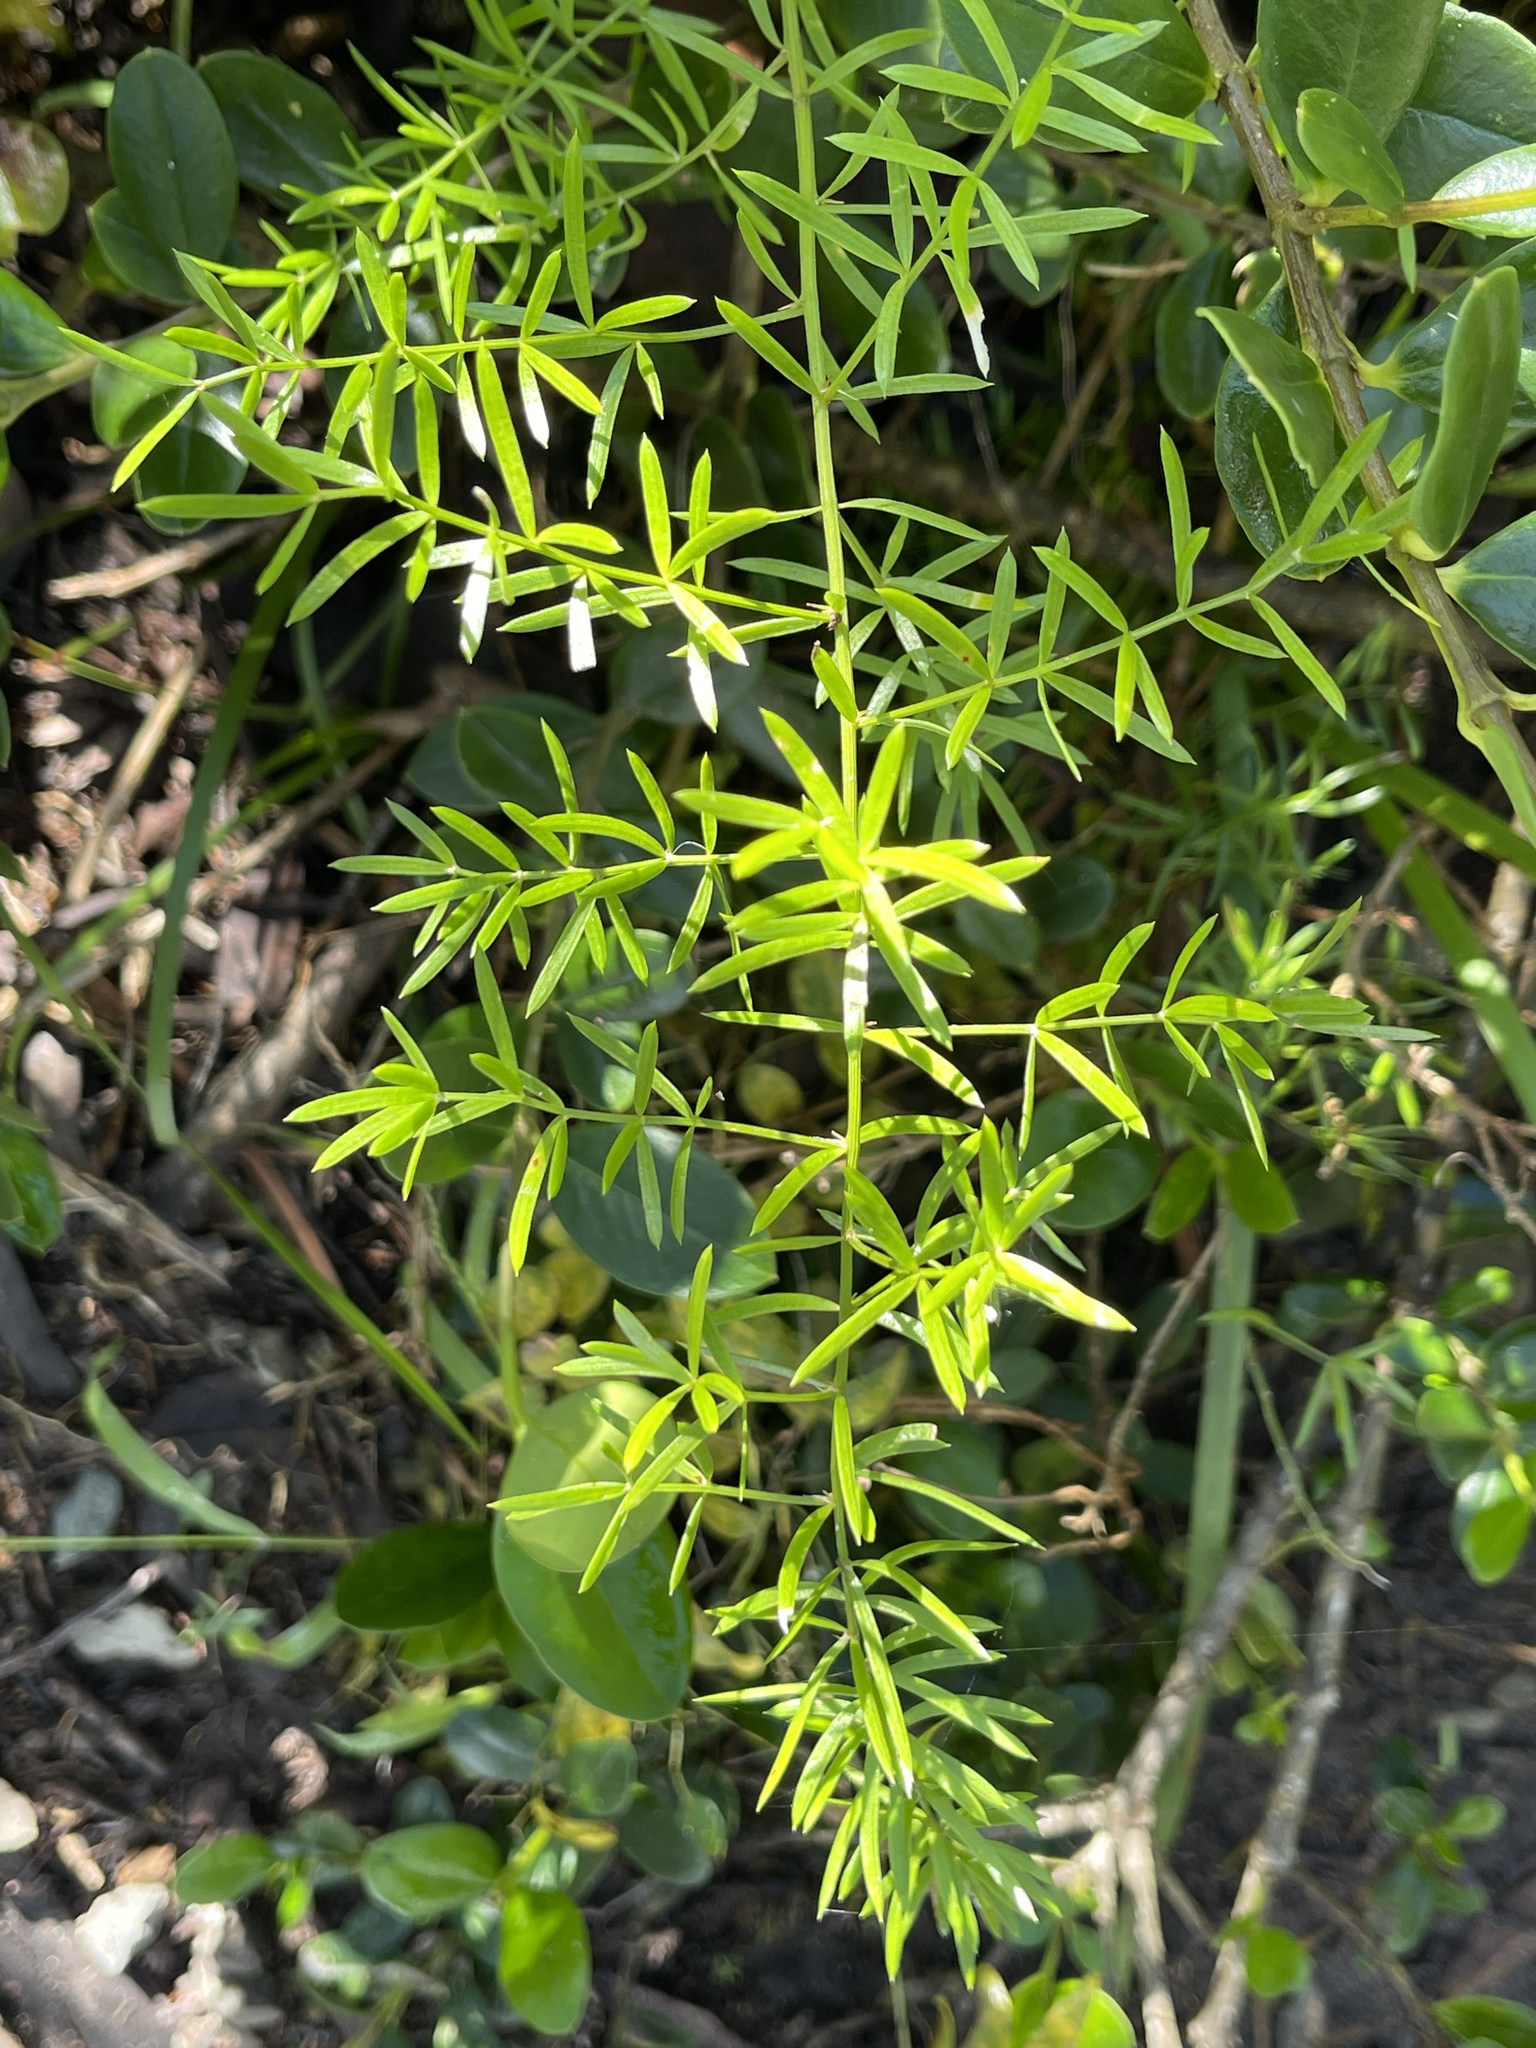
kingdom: Plantae
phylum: Tracheophyta
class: Liliopsida
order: Asparagales
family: Asparagaceae
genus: Asparagus
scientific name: Asparagus aethiopicus
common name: Sprenger's asparagus fern
